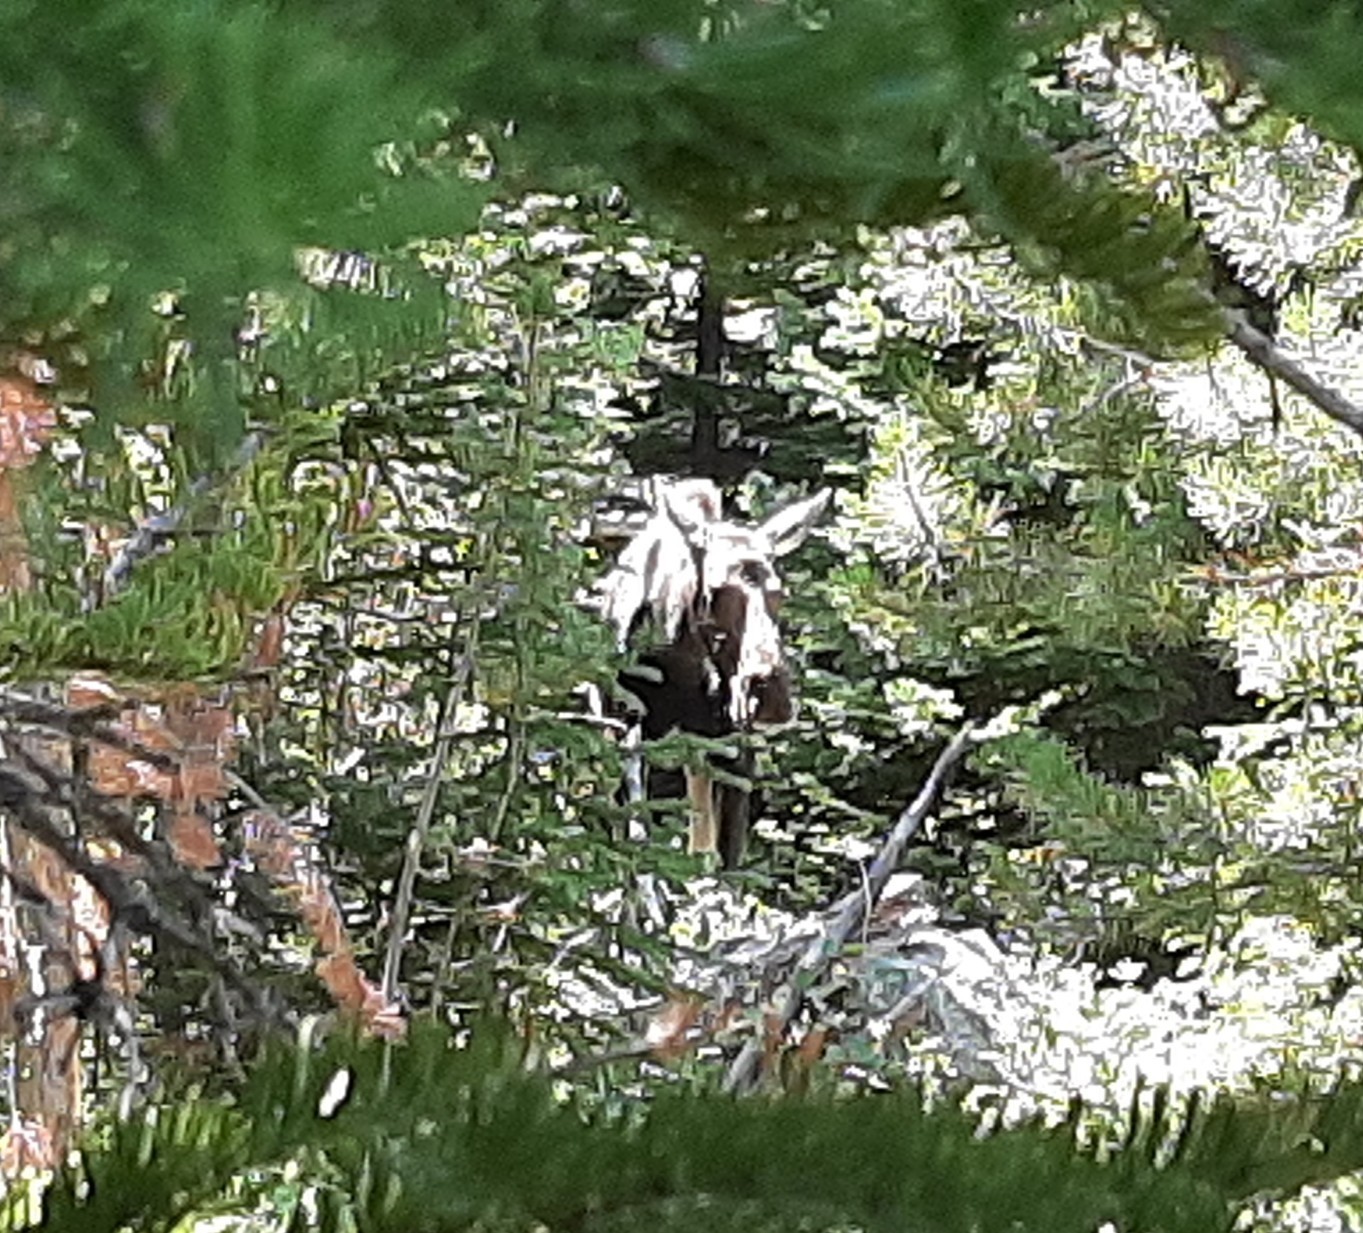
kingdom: Animalia
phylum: Chordata
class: Mammalia
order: Artiodactyla
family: Cervidae
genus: Alces
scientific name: Alces alces
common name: Moose
